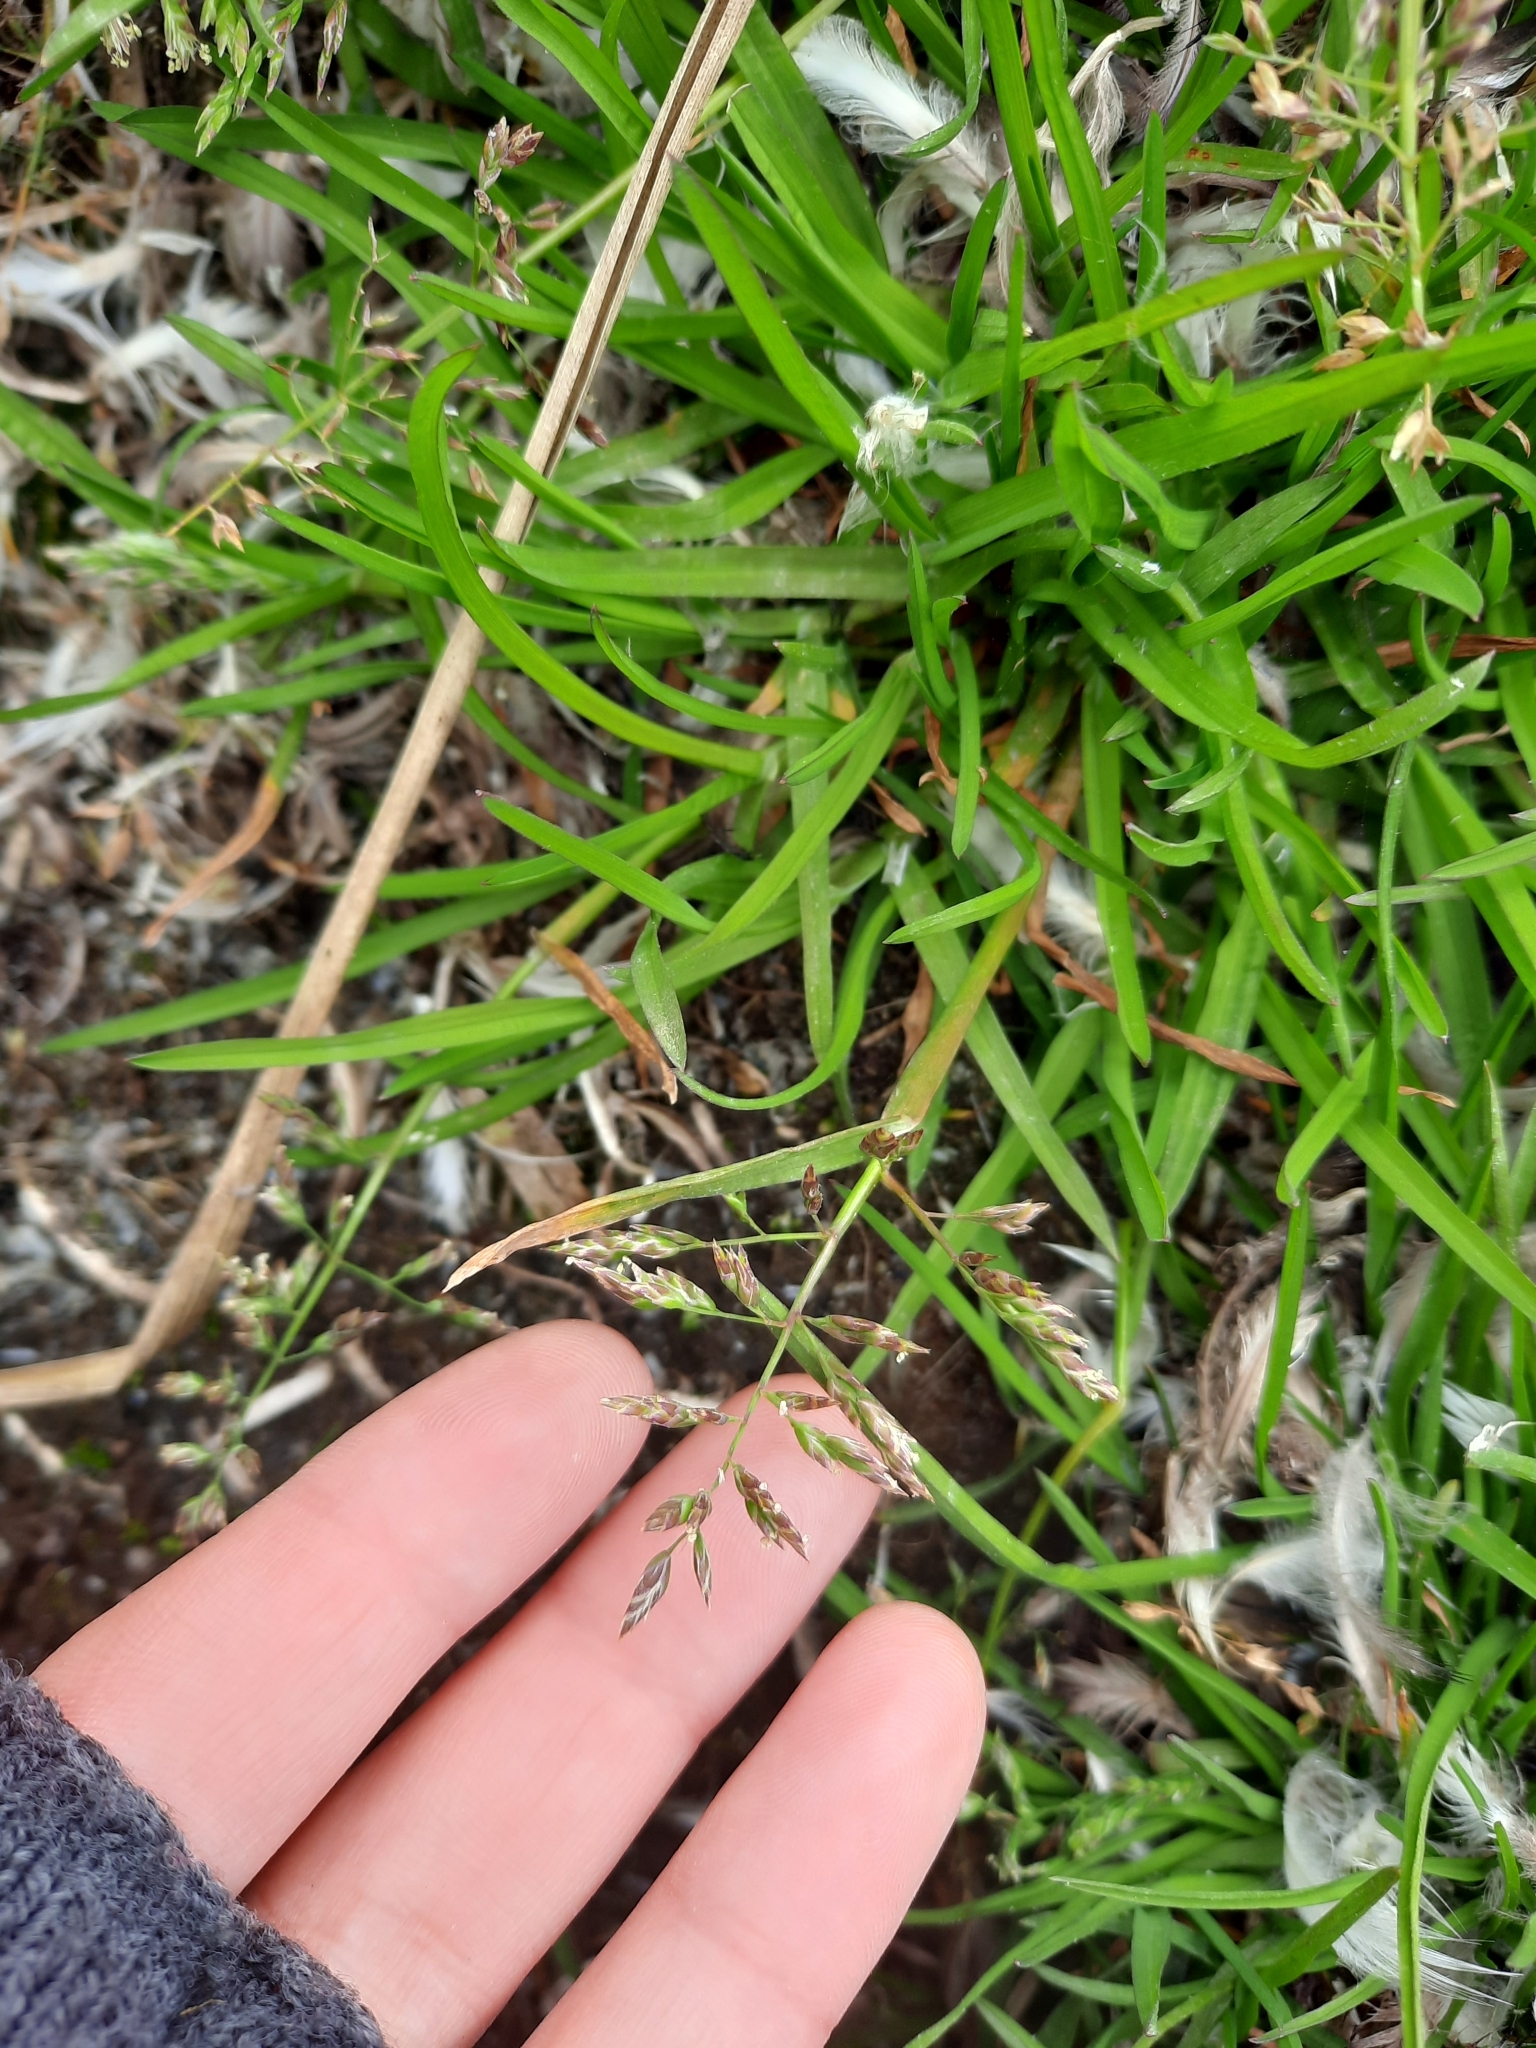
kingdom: Plantae
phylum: Tracheophyta
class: Liliopsida
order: Poales
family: Poaceae
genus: Poa
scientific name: Poa annua
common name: Annual bluegrass
